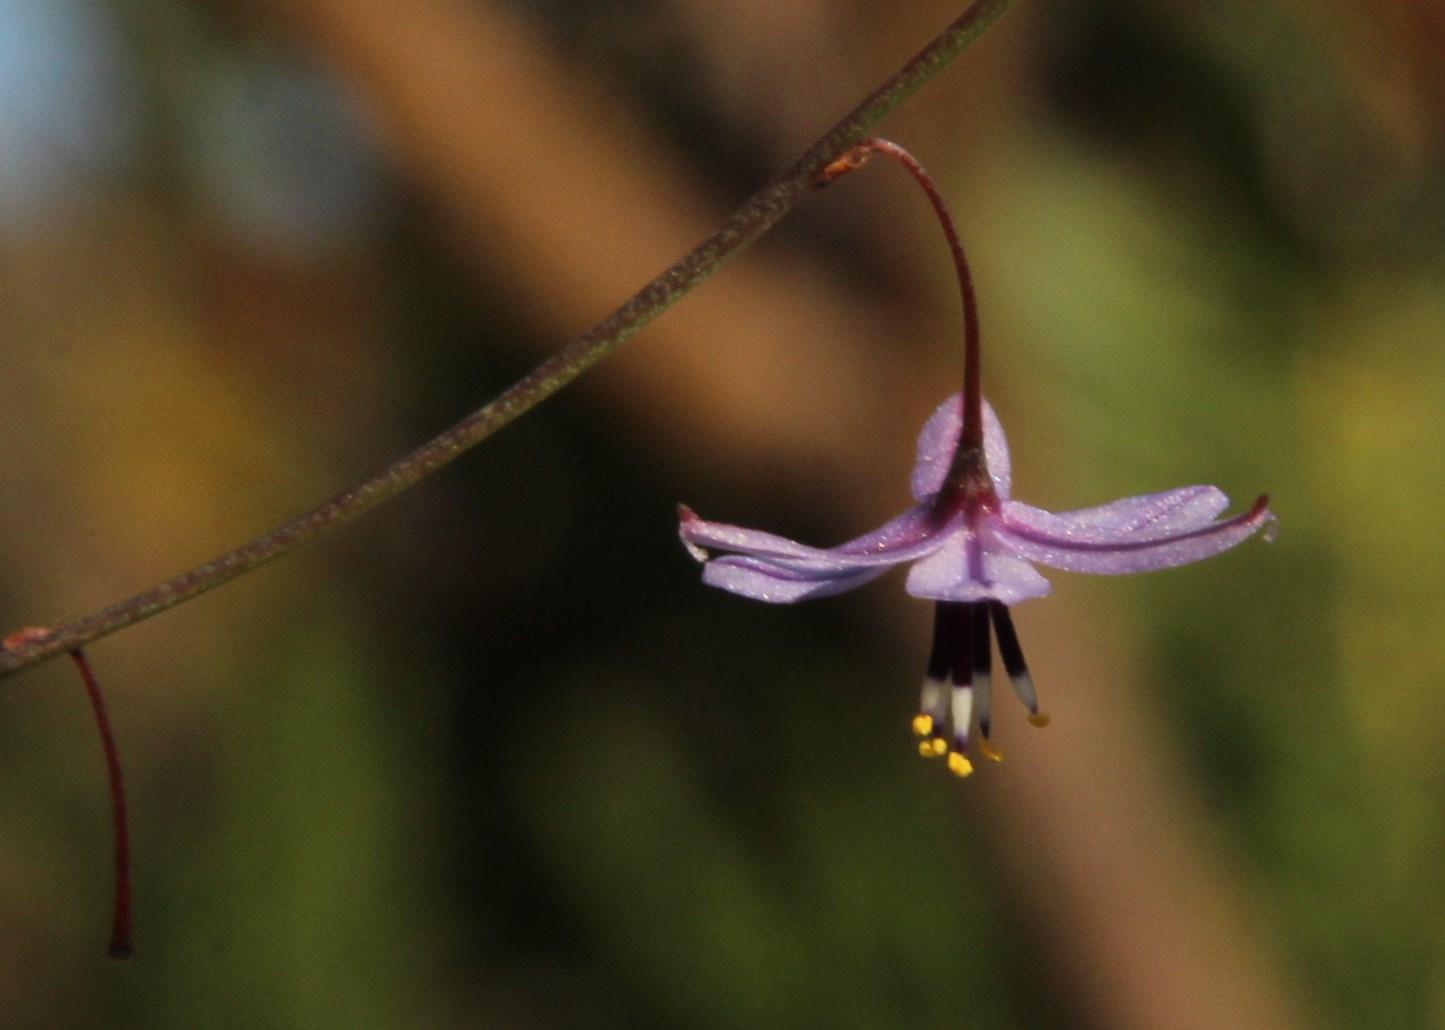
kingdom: Plantae
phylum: Tracheophyta
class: Liliopsida
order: Asparagales
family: Asphodelaceae
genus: Caesia
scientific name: Caesia contorta
